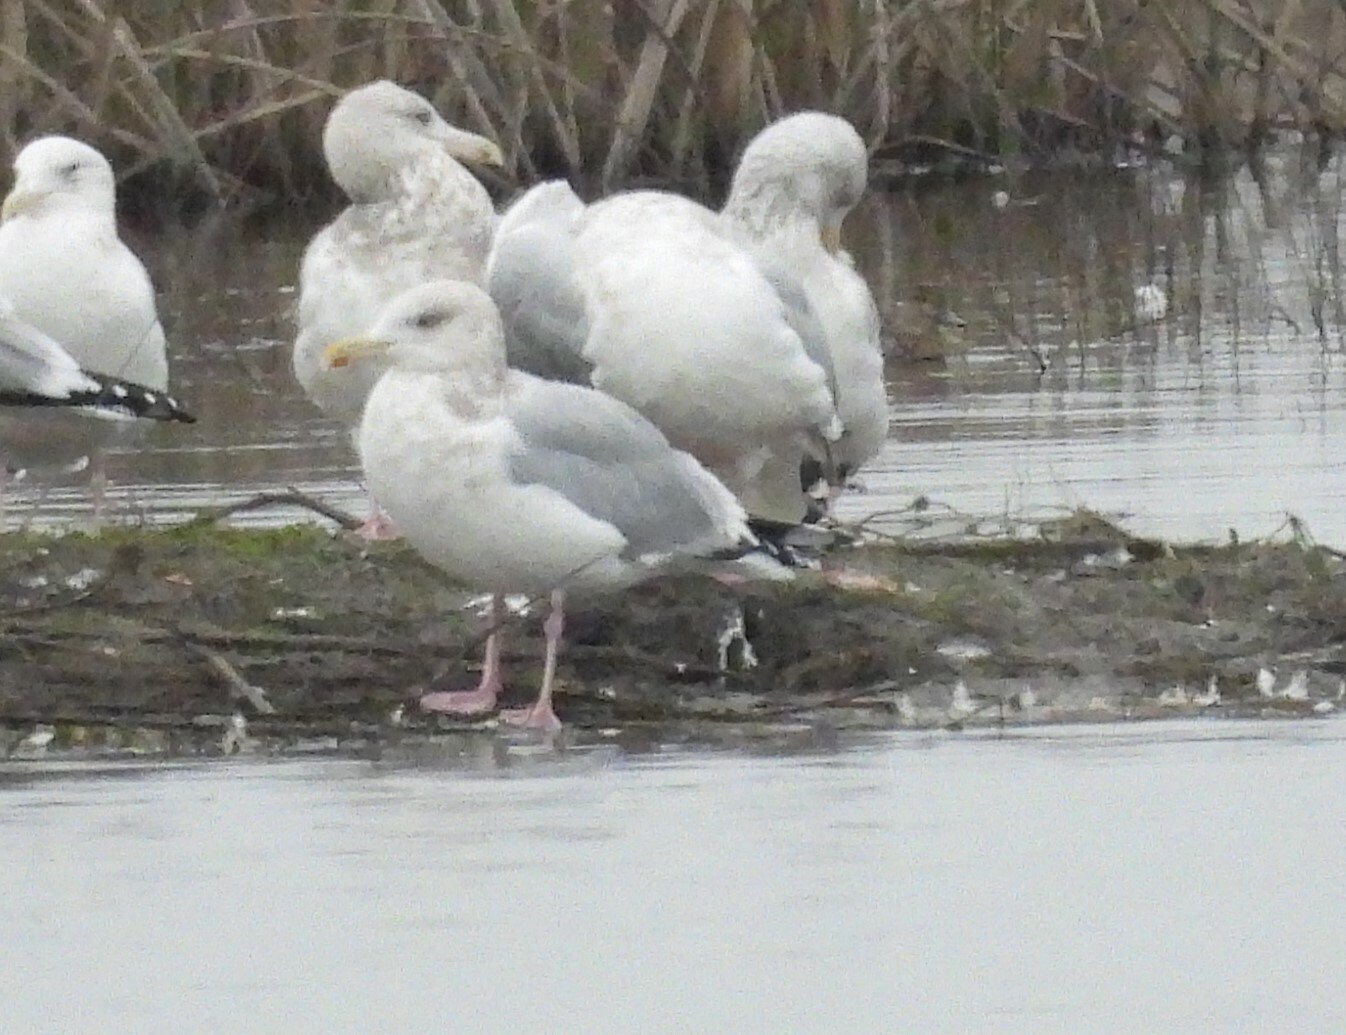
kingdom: Animalia
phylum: Chordata
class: Aves
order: Charadriiformes
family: Laridae
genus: Larus
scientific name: Larus argentatus
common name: Herring gull
